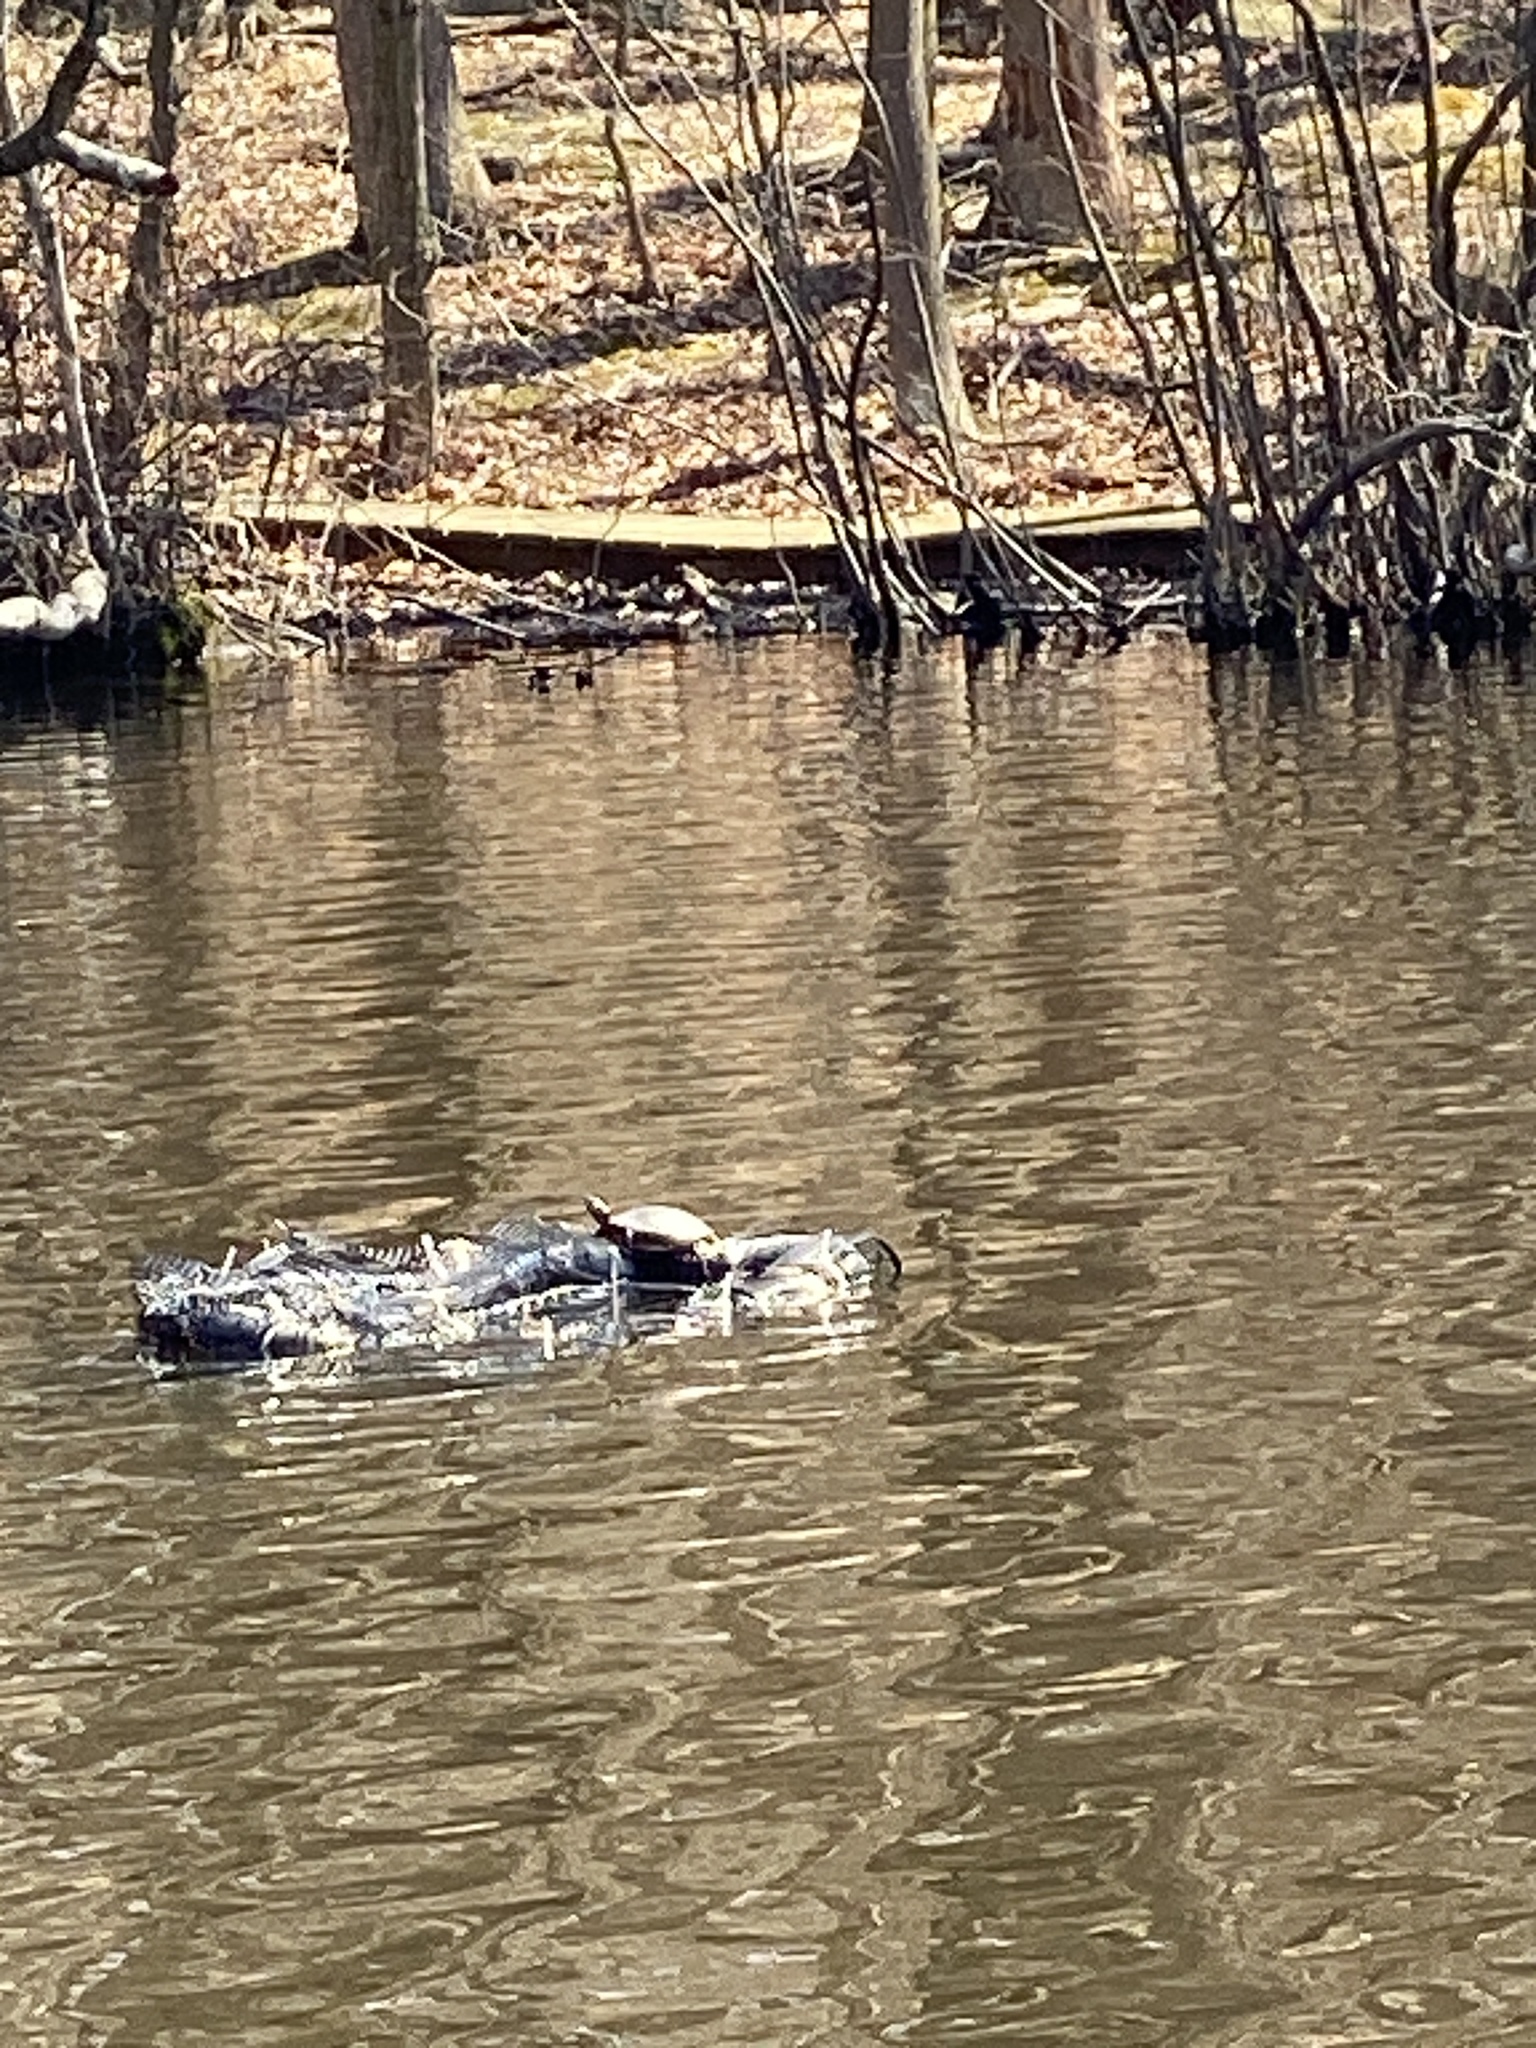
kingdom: Animalia
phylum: Chordata
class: Testudines
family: Emydidae
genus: Chrysemys
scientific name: Chrysemys picta
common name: Painted turtle
